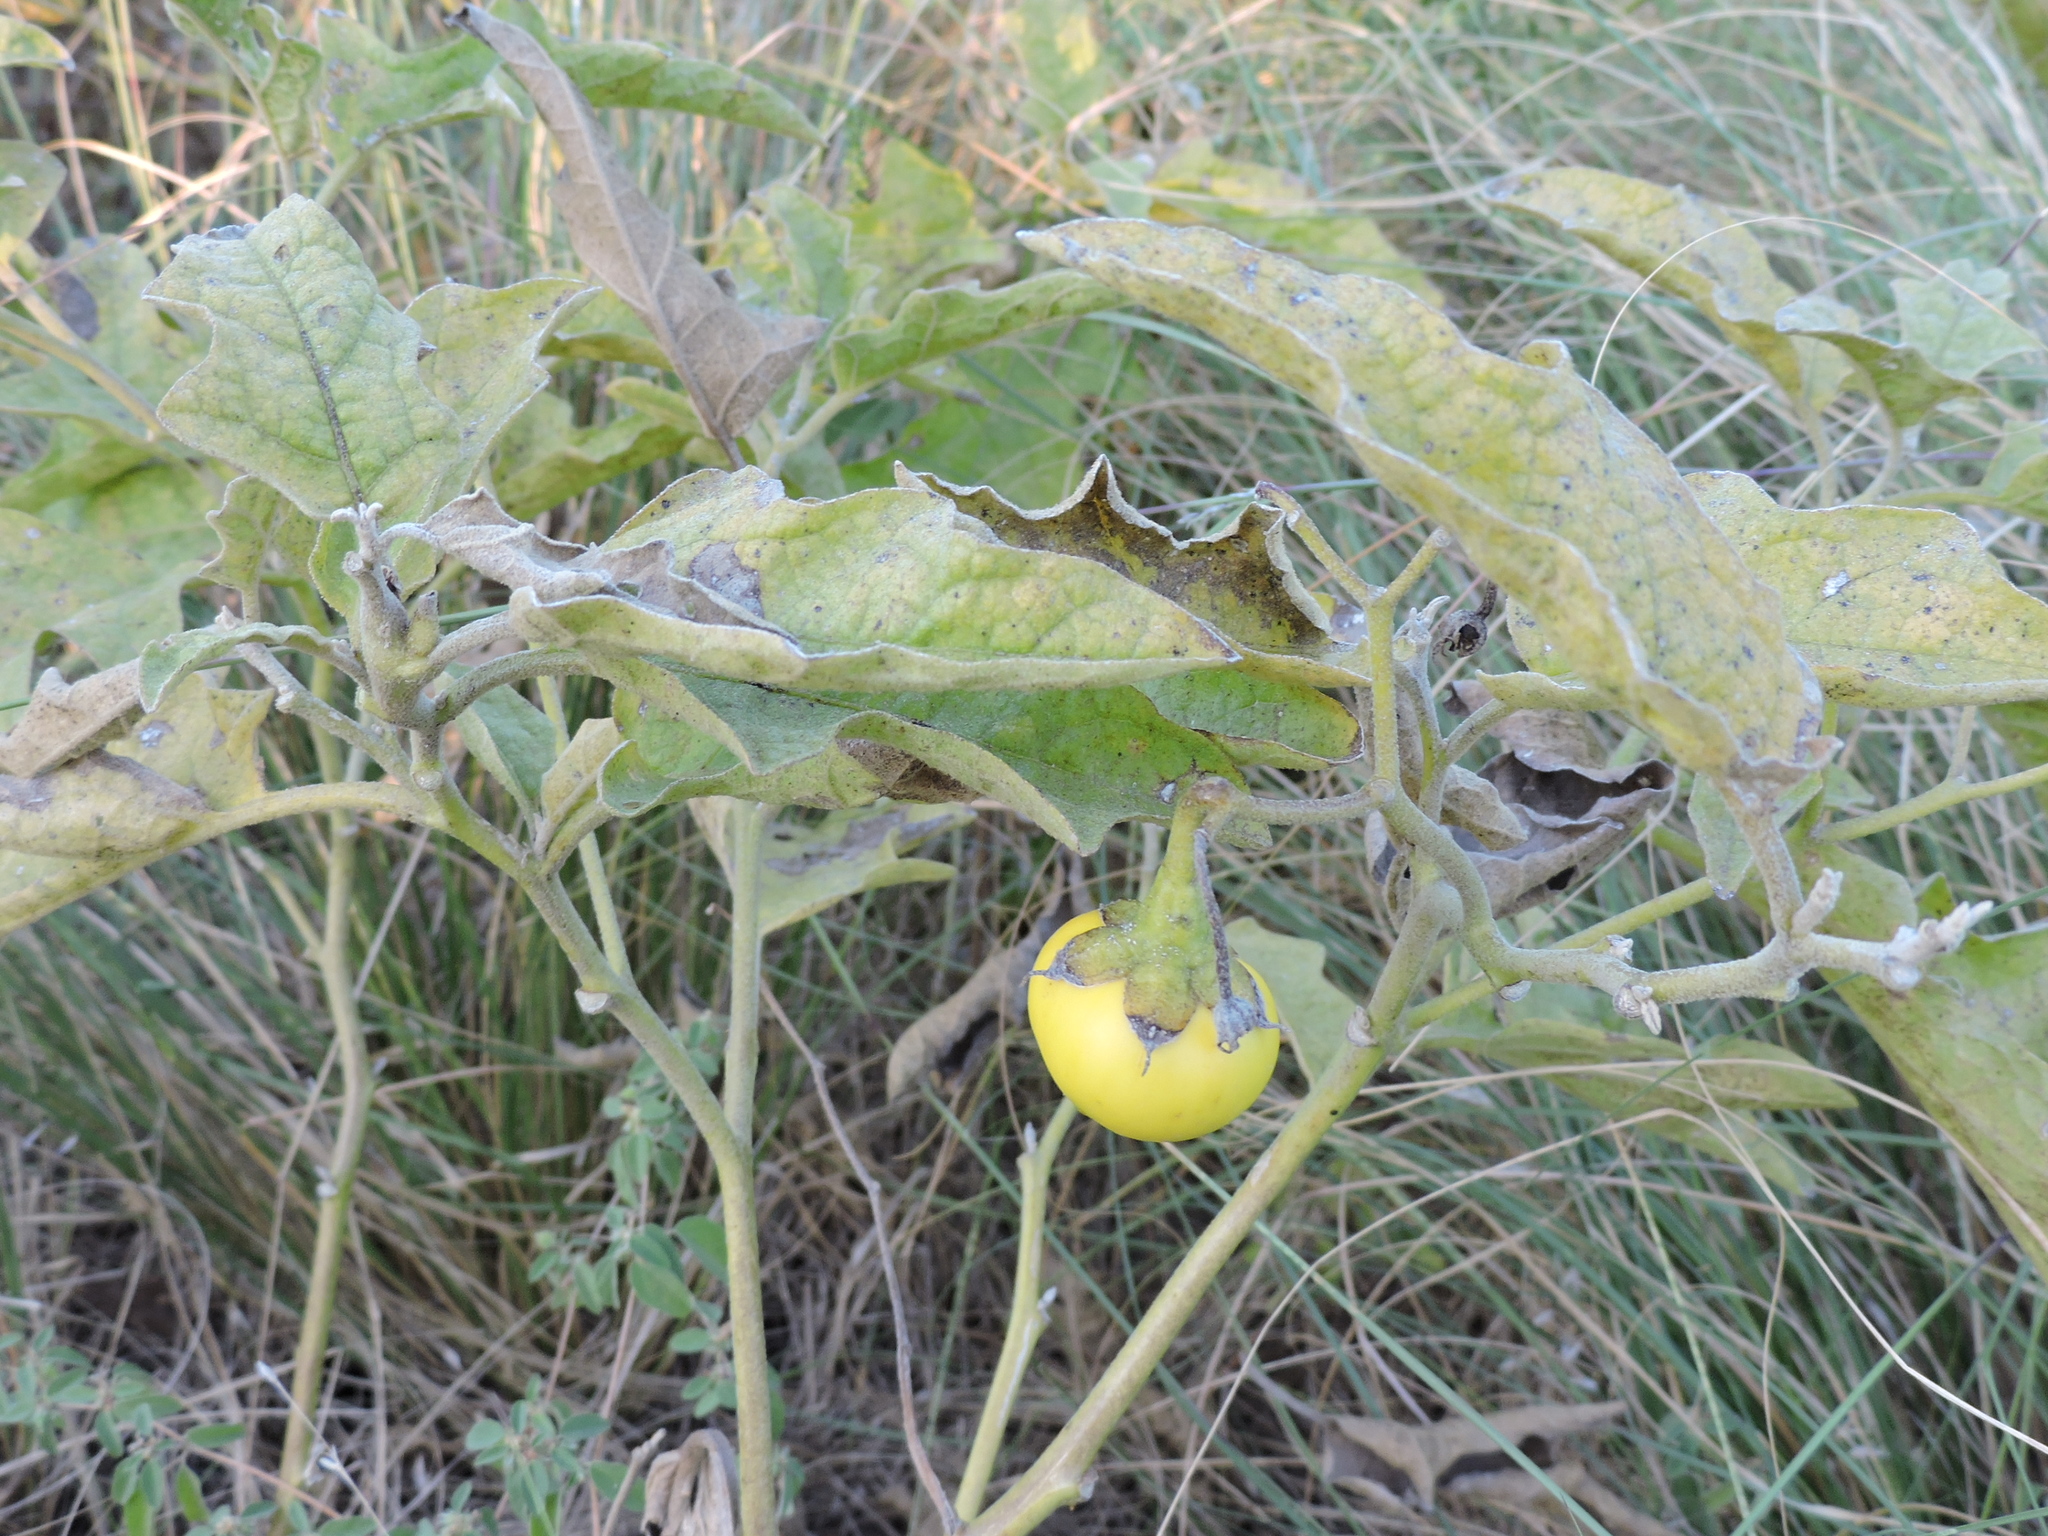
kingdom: Plantae
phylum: Tracheophyta
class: Magnoliopsida
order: Solanales
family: Solanaceae
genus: Solanum
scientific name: Solanum dimidiatum
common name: Carolina horse-nettle
